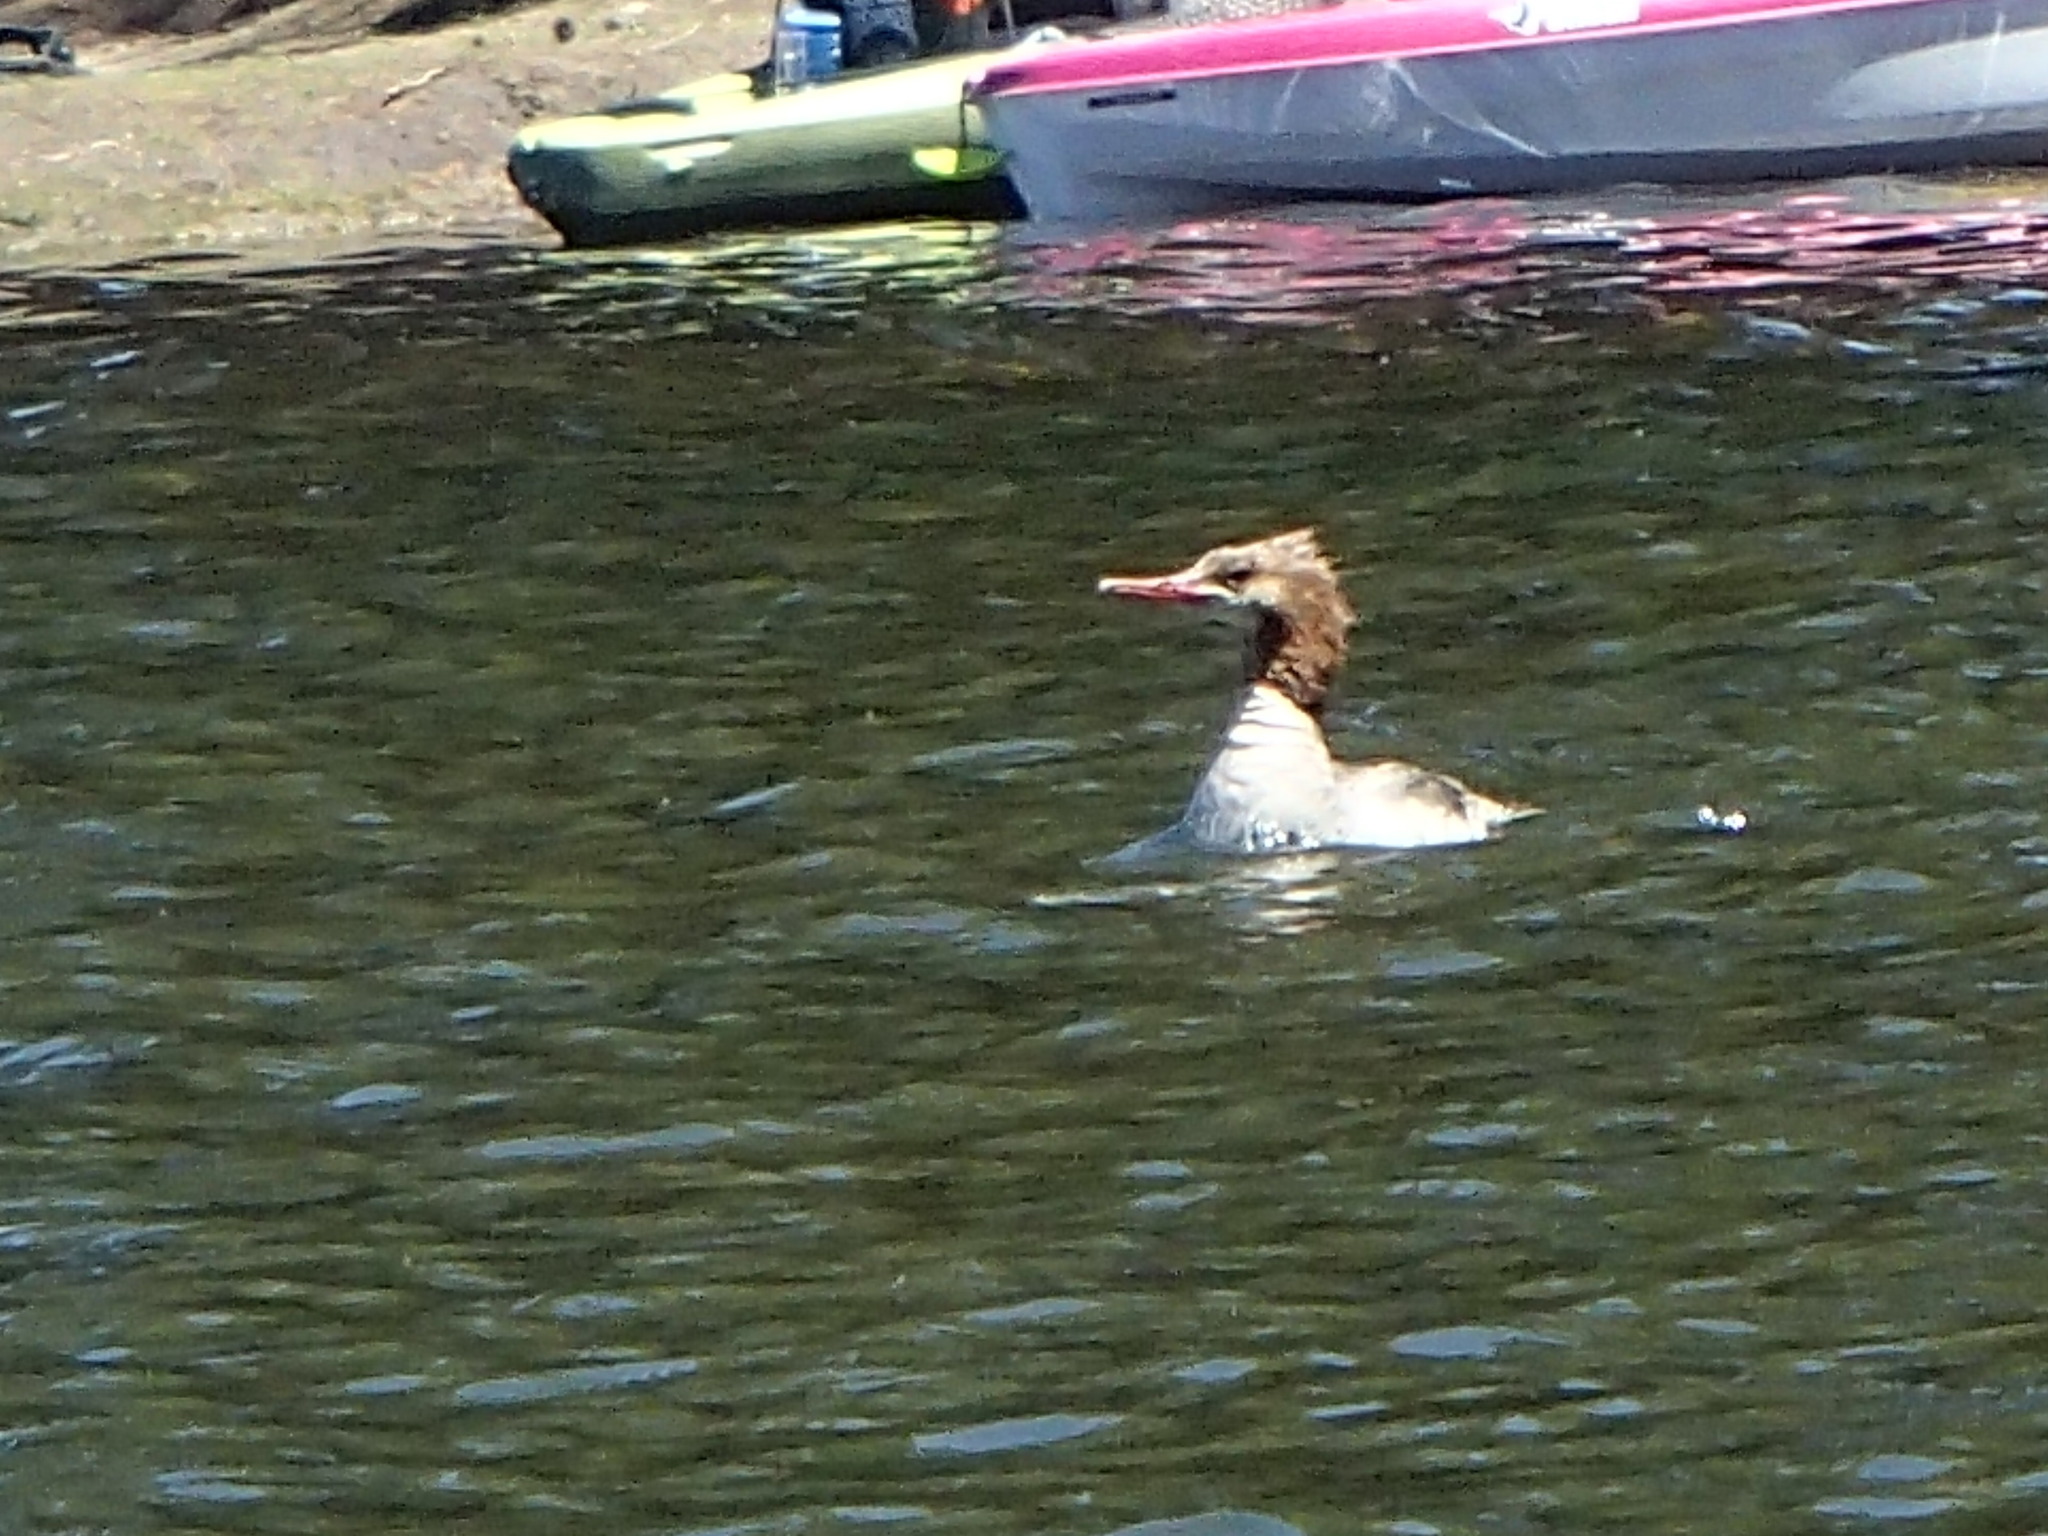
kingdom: Animalia
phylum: Chordata
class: Aves
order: Anseriformes
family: Anatidae
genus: Mergus
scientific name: Mergus merganser
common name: Common merganser
